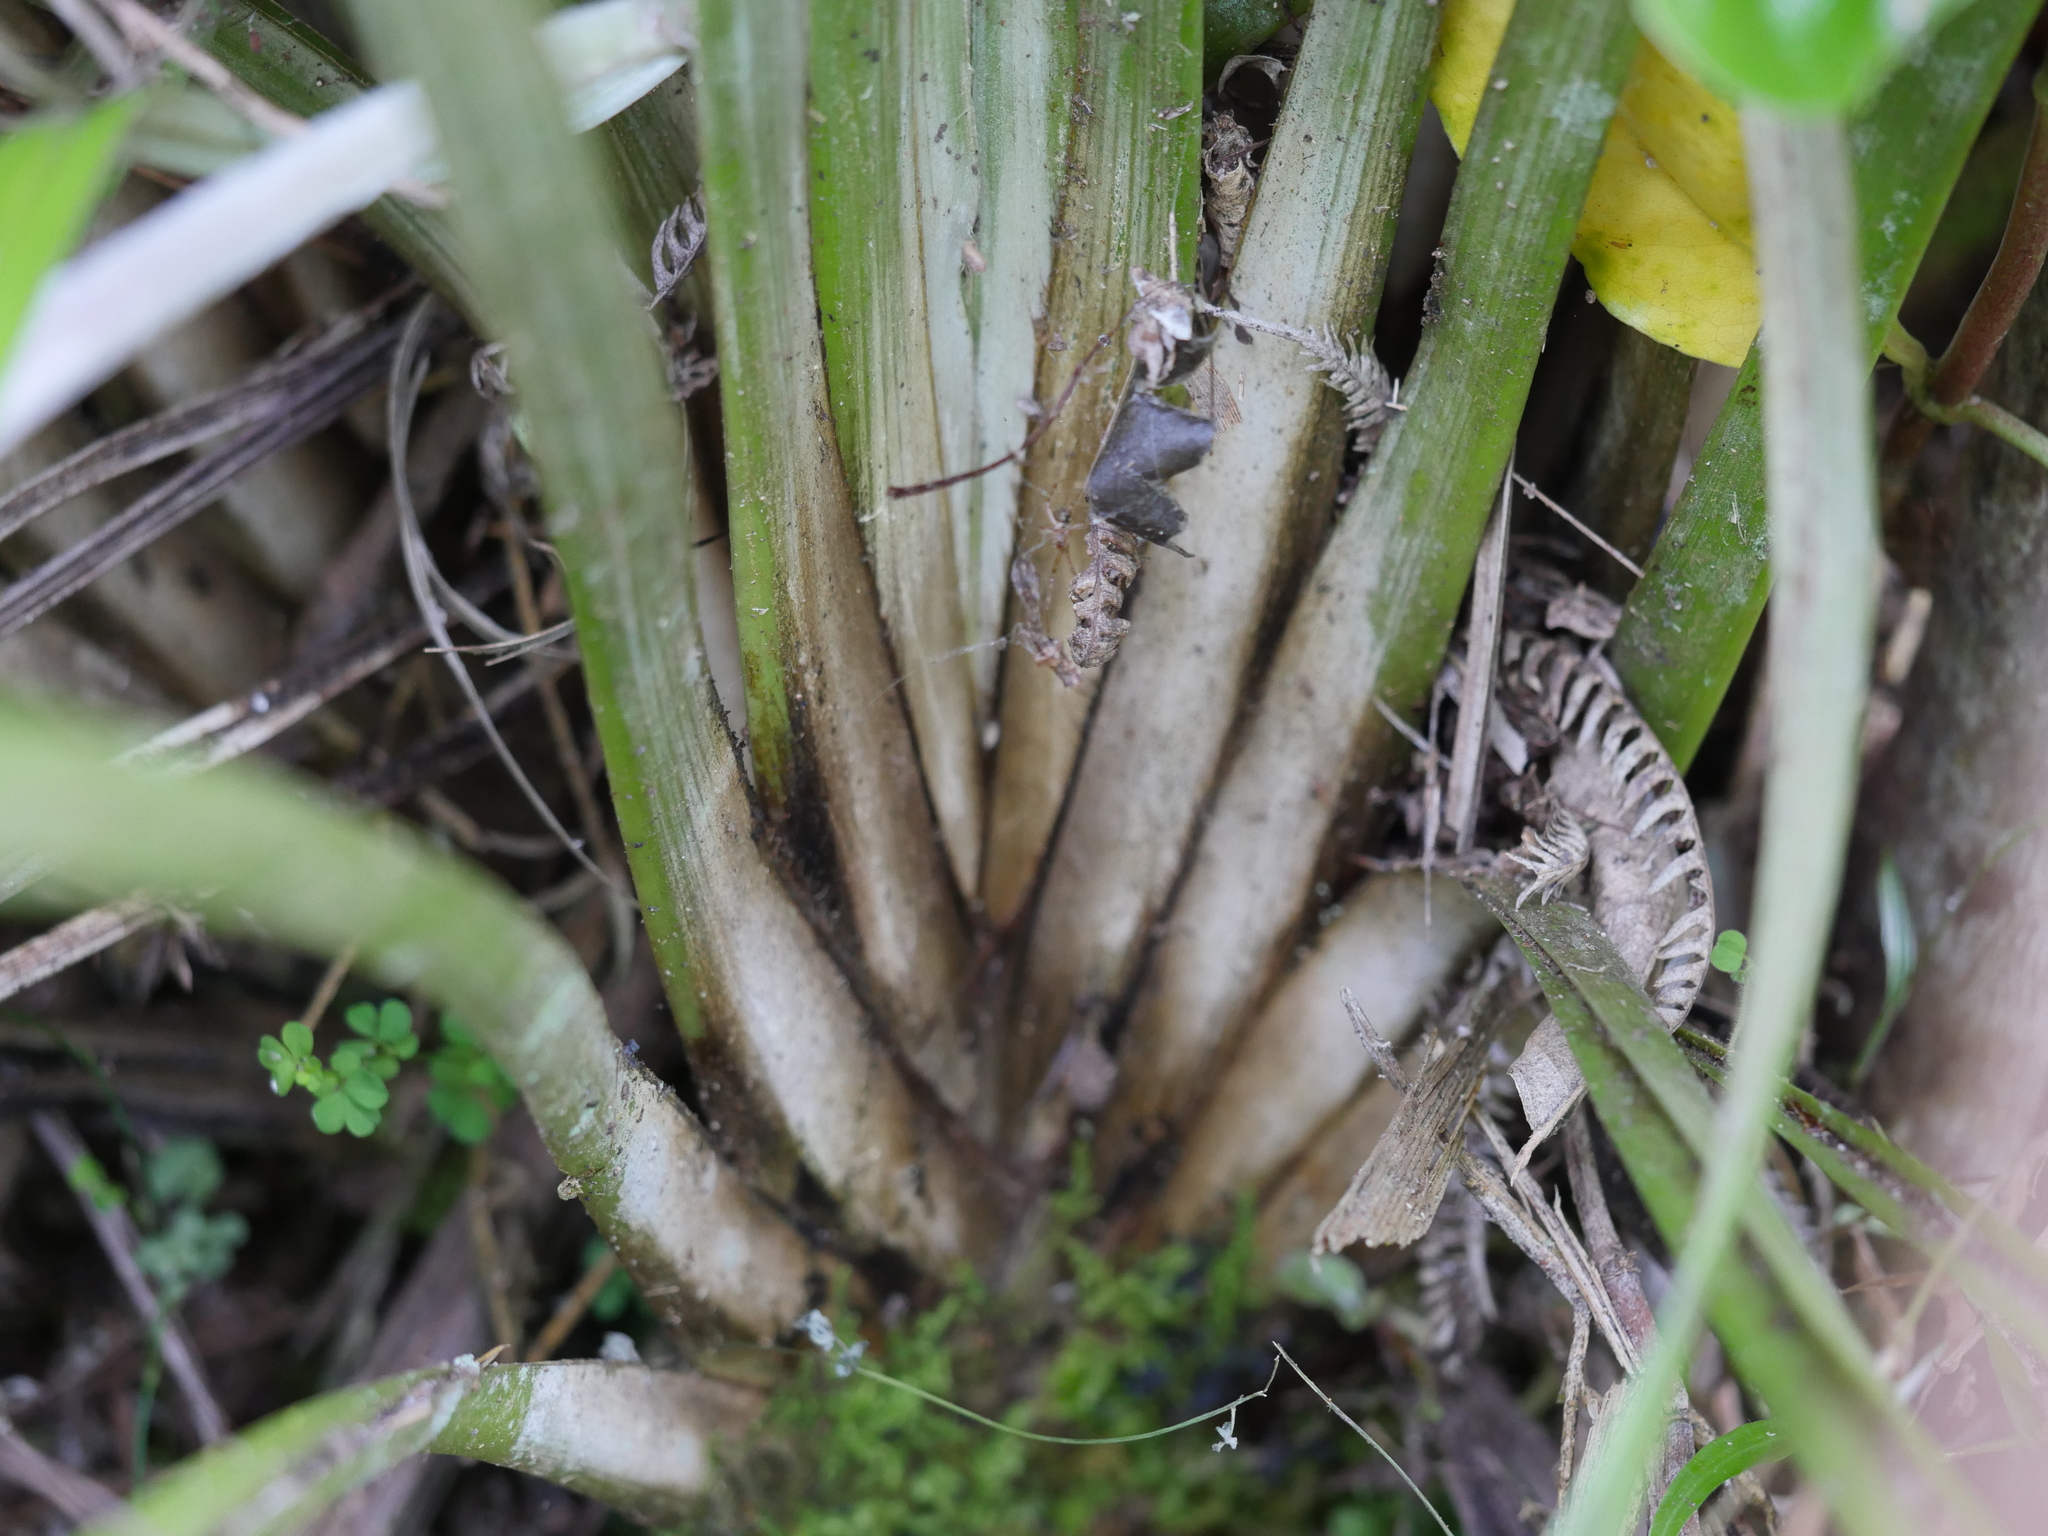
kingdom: Plantae
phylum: Tracheophyta
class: Liliopsida
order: Asparagales
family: Asteliaceae
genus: Astelia
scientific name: Astelia solandri
